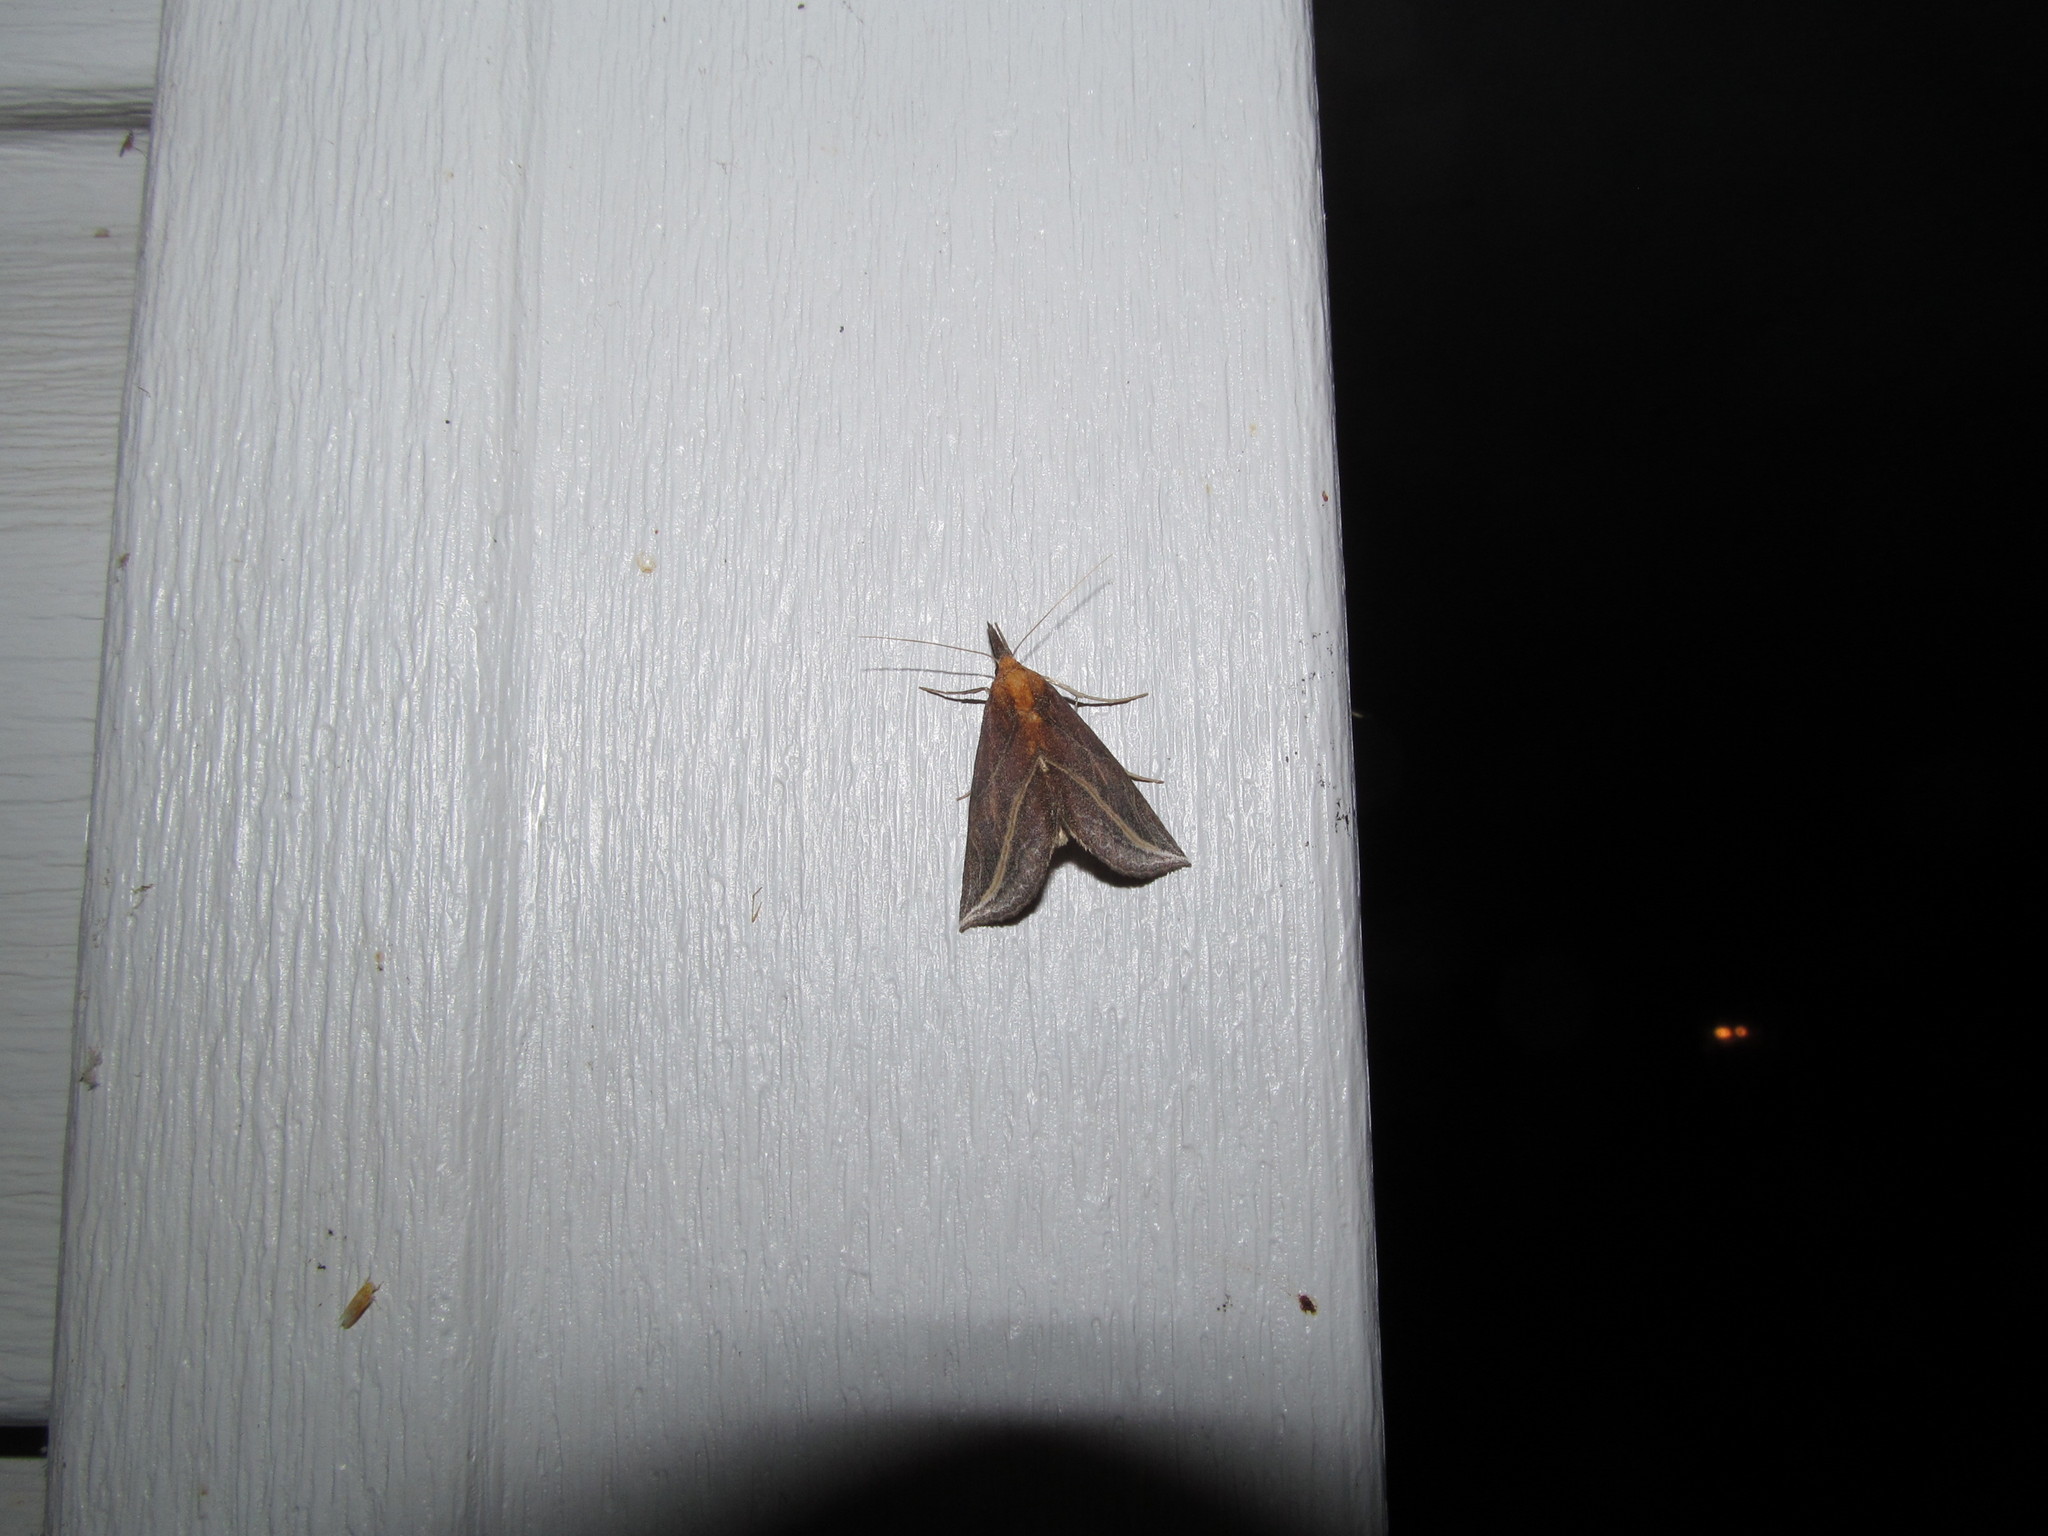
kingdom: Animalia
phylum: Arthropoda
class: Insecta
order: Lepidoptera
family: Erebidae
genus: Phyprosopus
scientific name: Phyprosopus callitrichoides
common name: Curved-lined owlet
